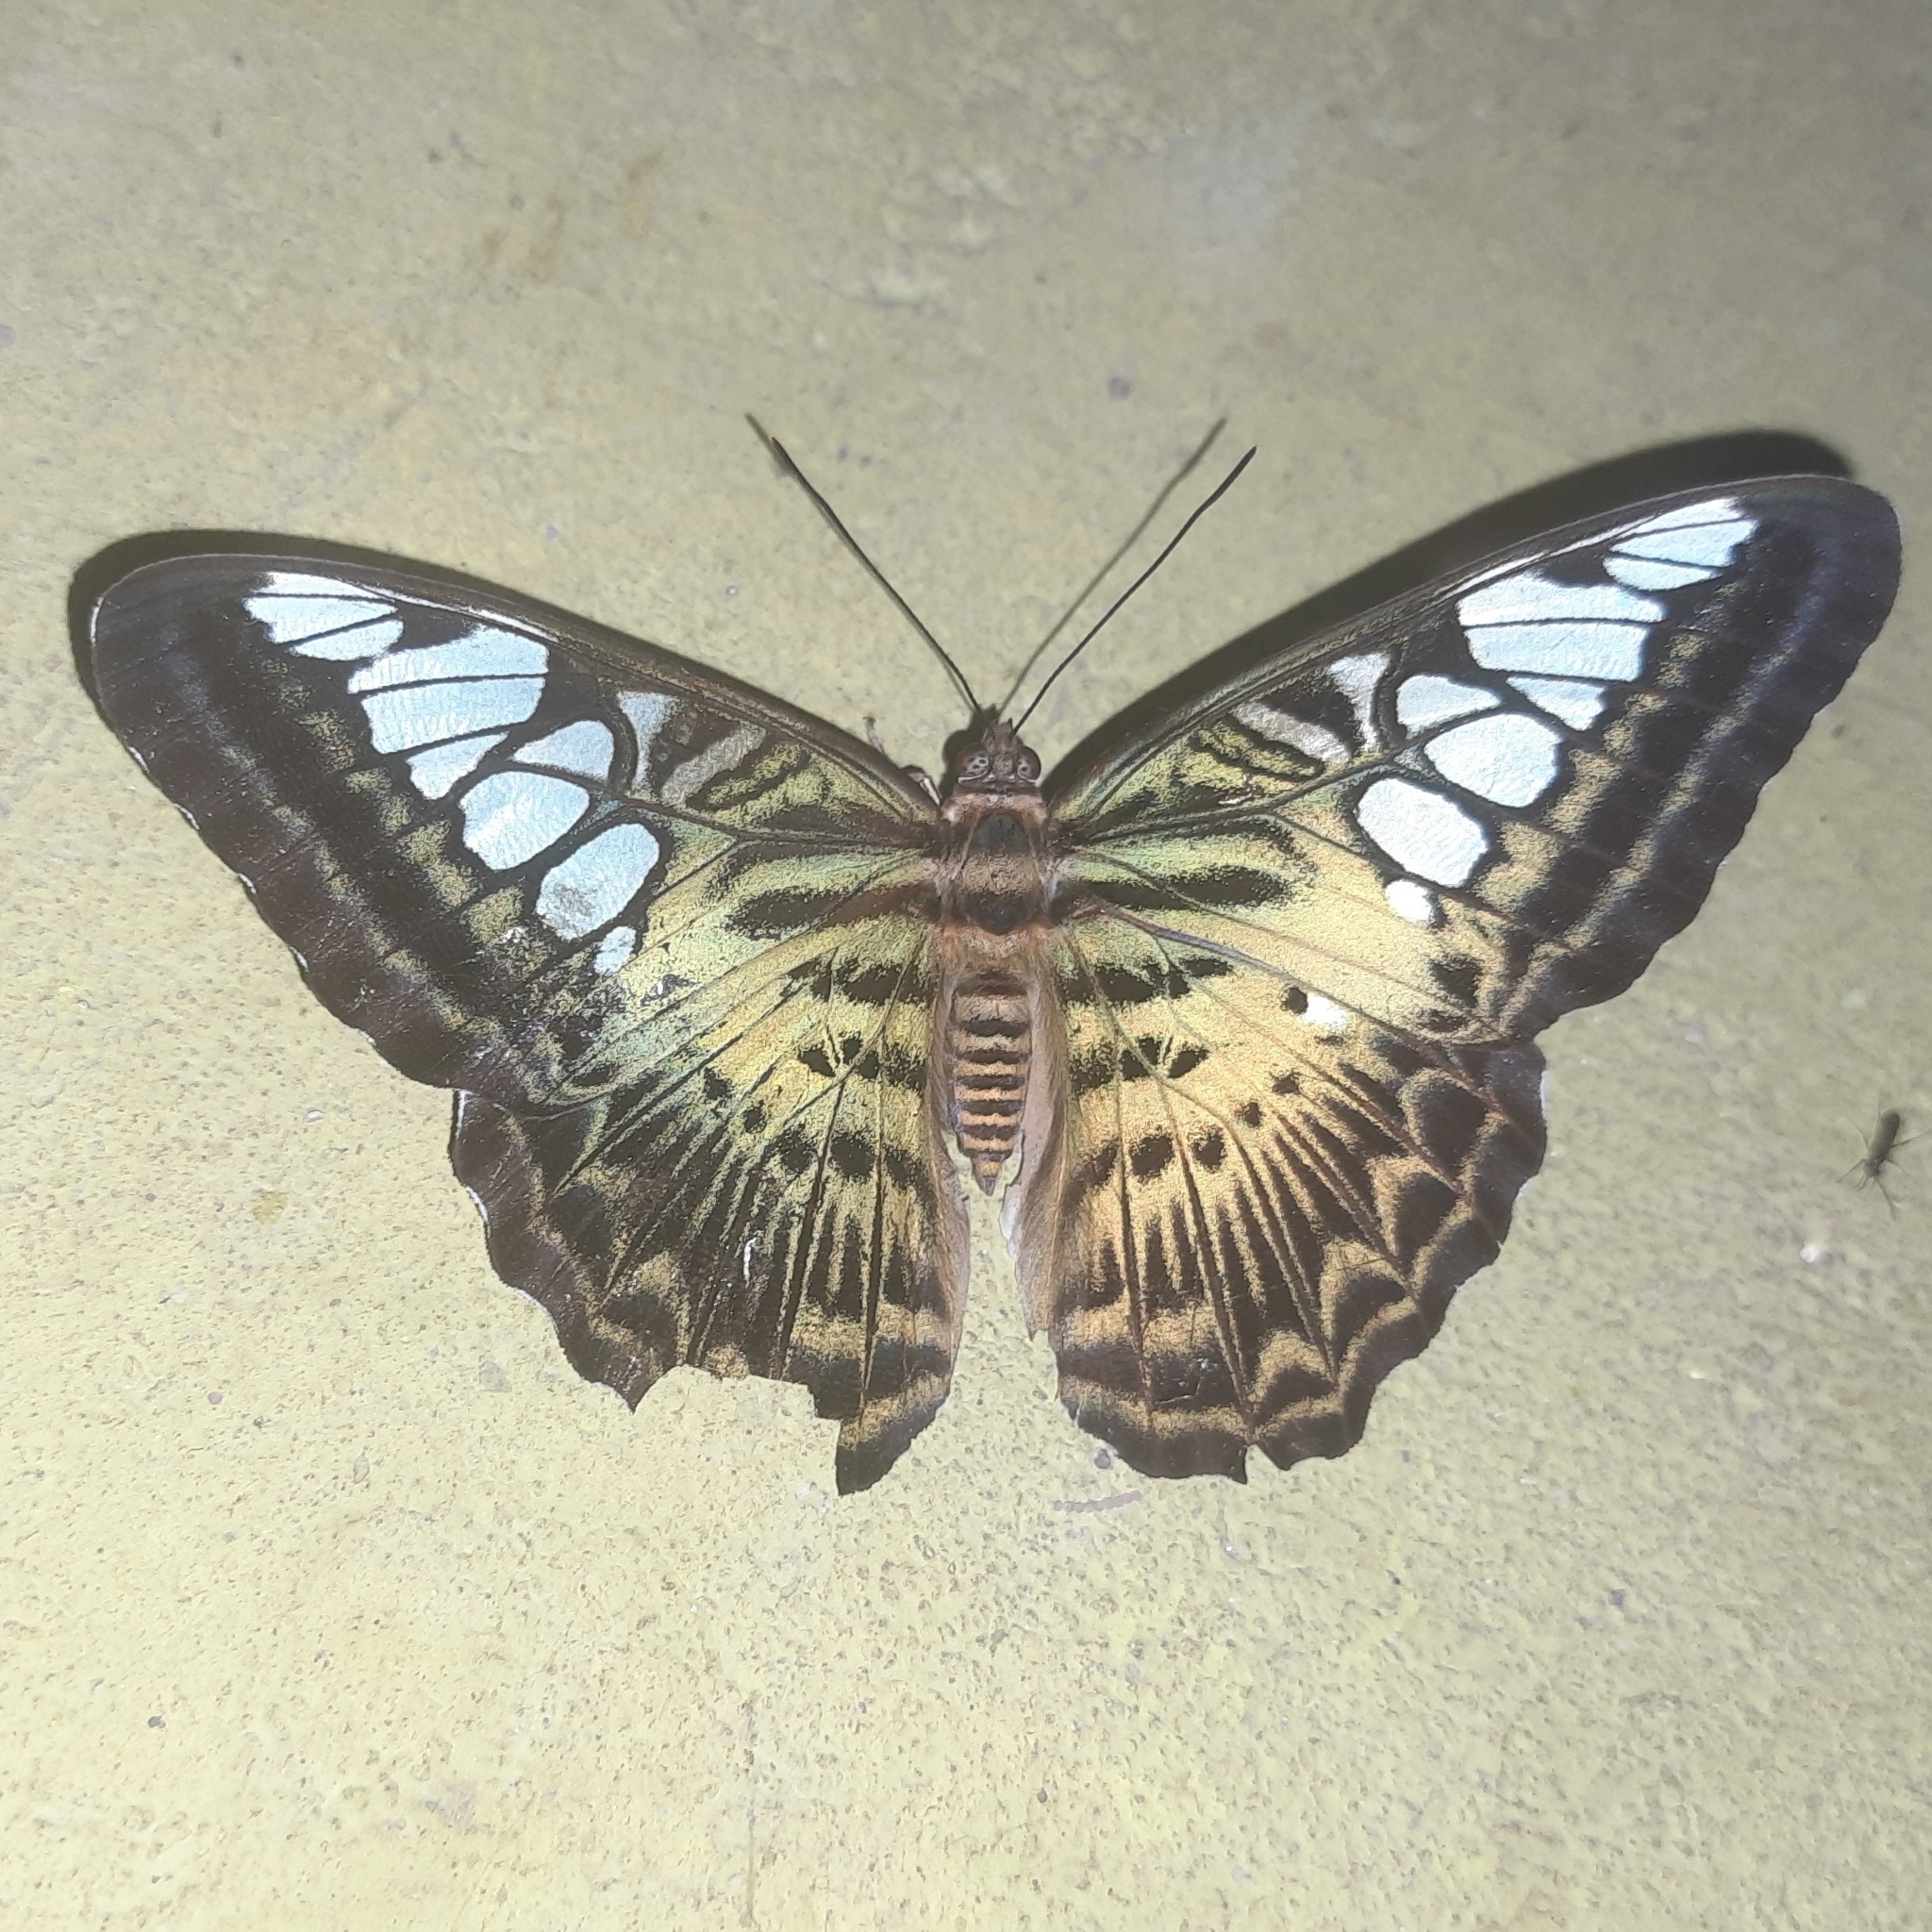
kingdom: Animalia
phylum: Arthropoda
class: Insecta
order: Lepidoptera
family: Nymphalidae
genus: Kallima
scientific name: Kallima sylvia
